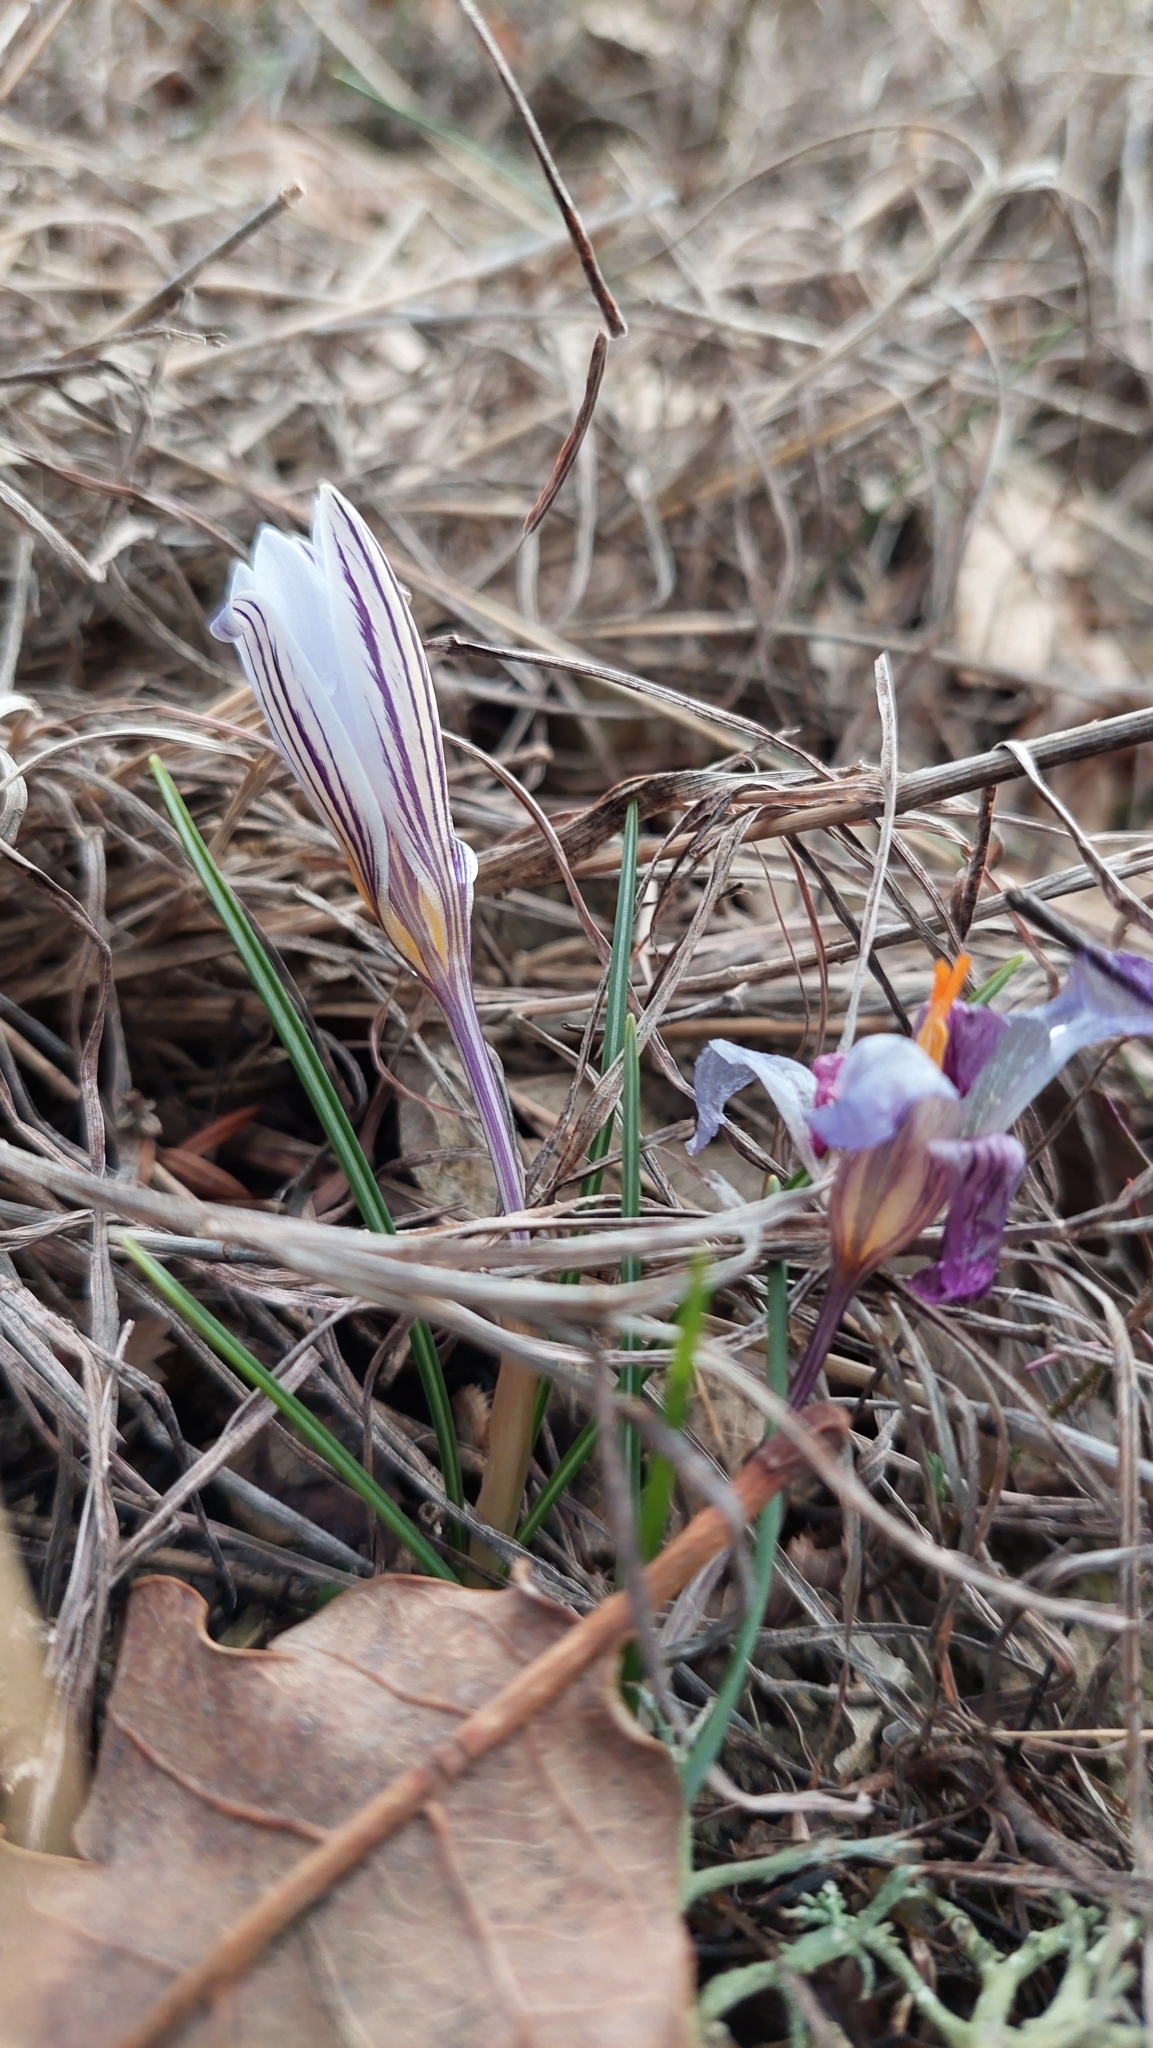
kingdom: Plantae
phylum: Tracheophyta
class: Liliopsida
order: Asparagales
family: Iridaceae
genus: Crocus
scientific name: Crocus reticulatus
